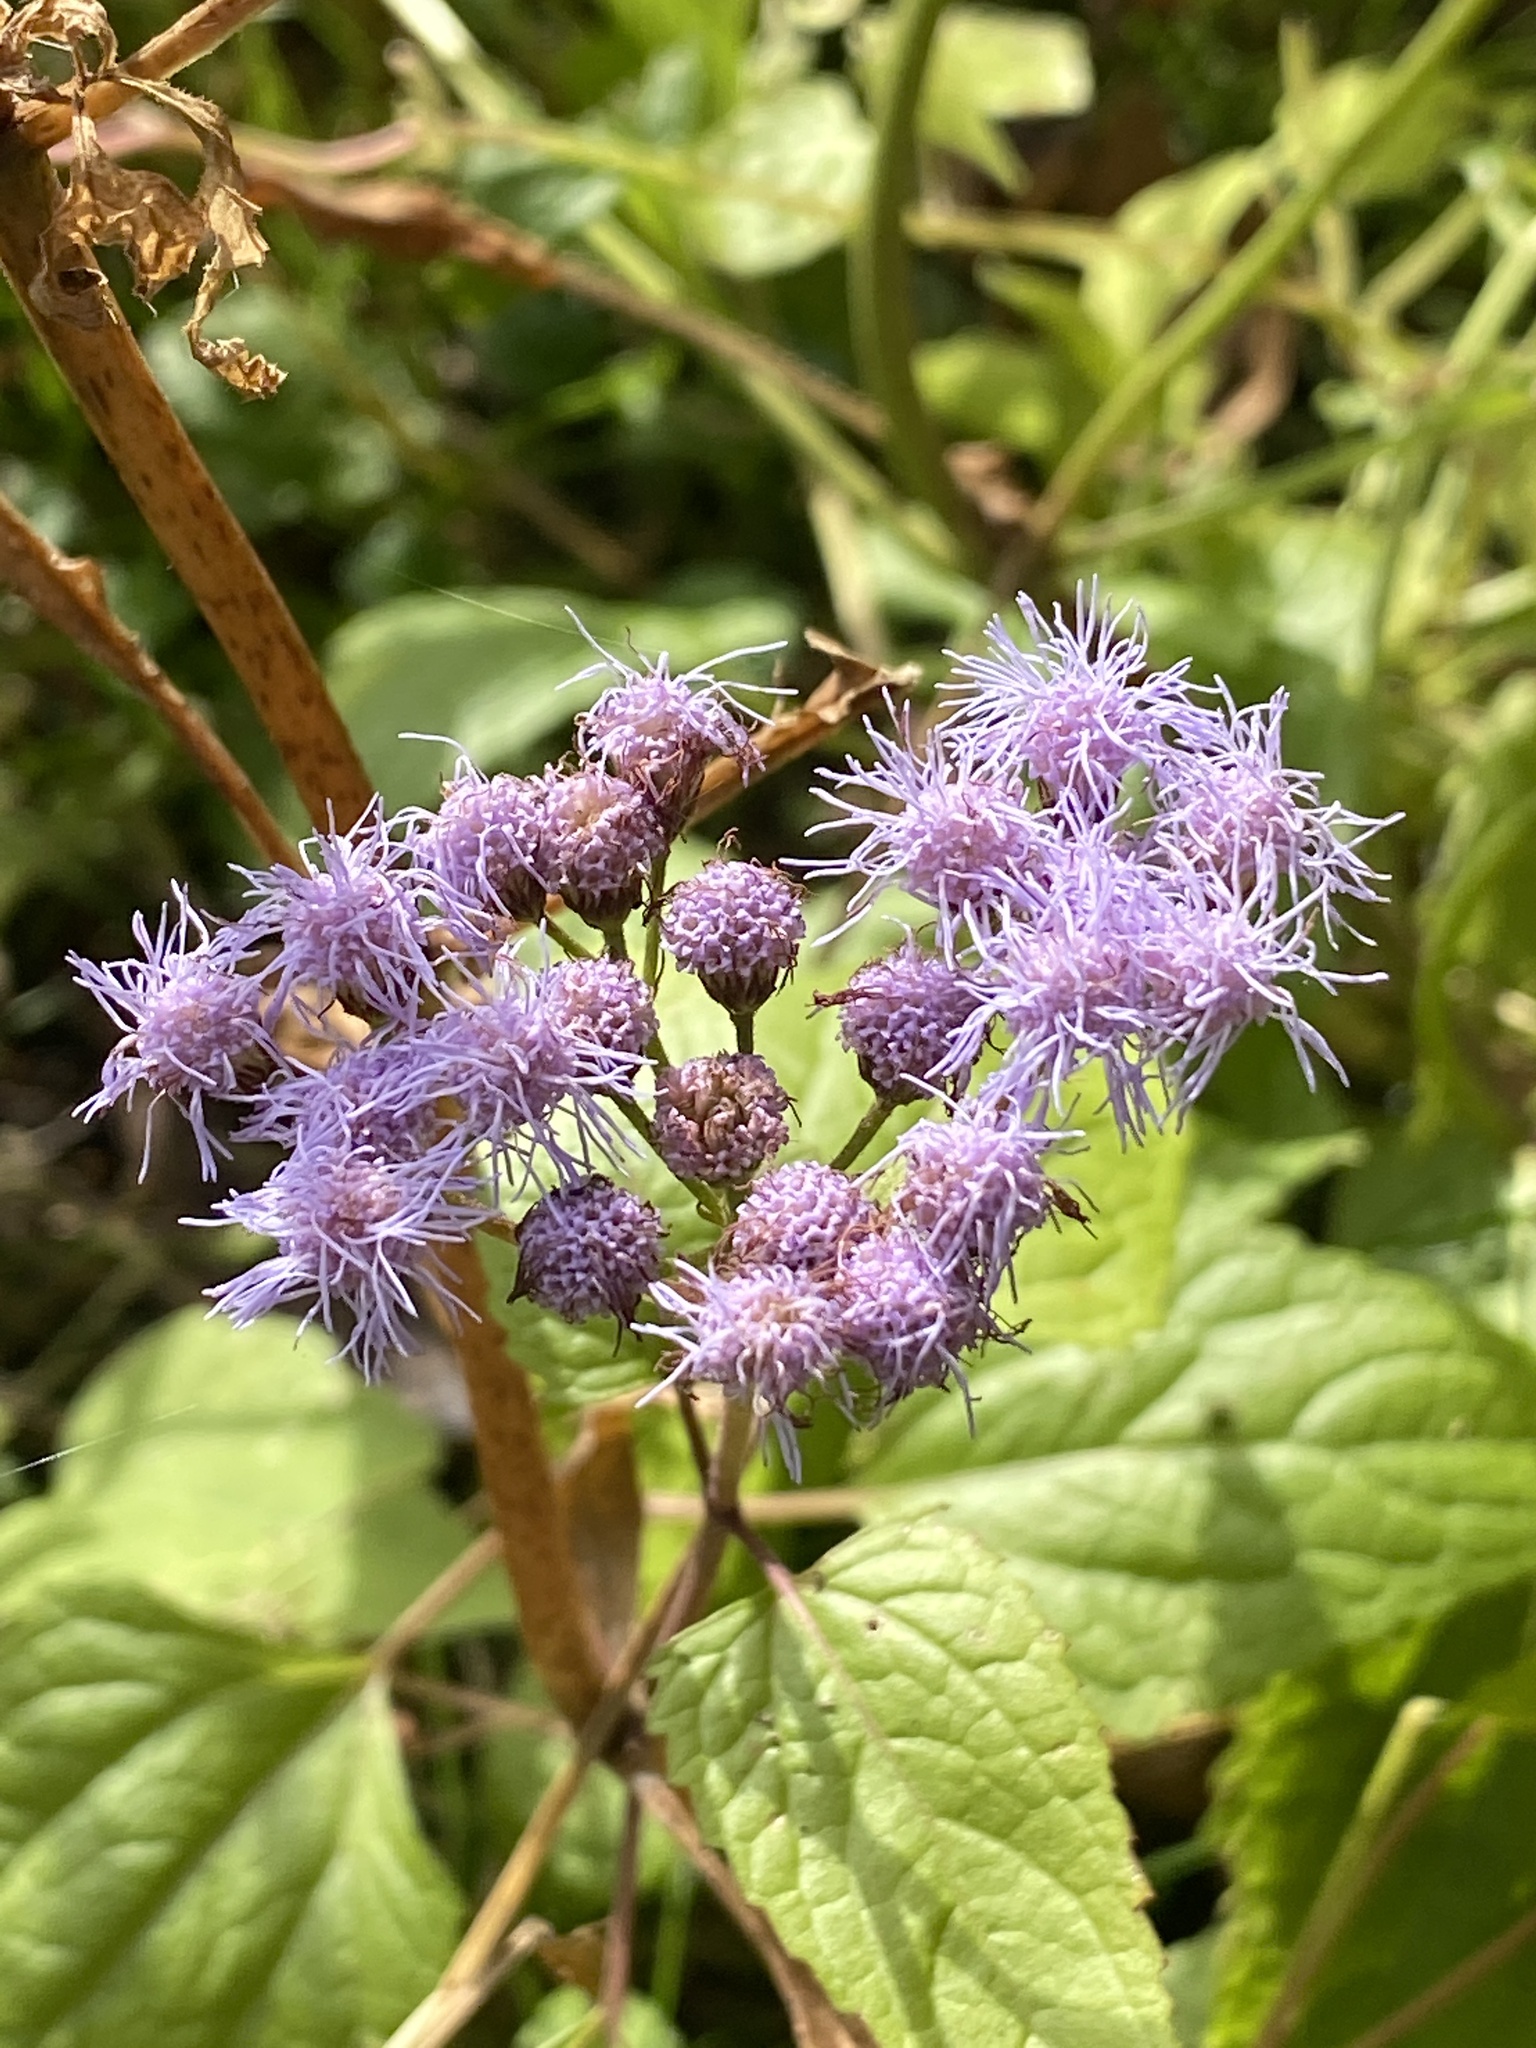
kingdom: Plantae
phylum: Tracheophyta
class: Magnoliopsida
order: Asterales
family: Asteraceae
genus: Conoclinium
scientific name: Conoclinium coelestinum
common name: Blue mistflower
